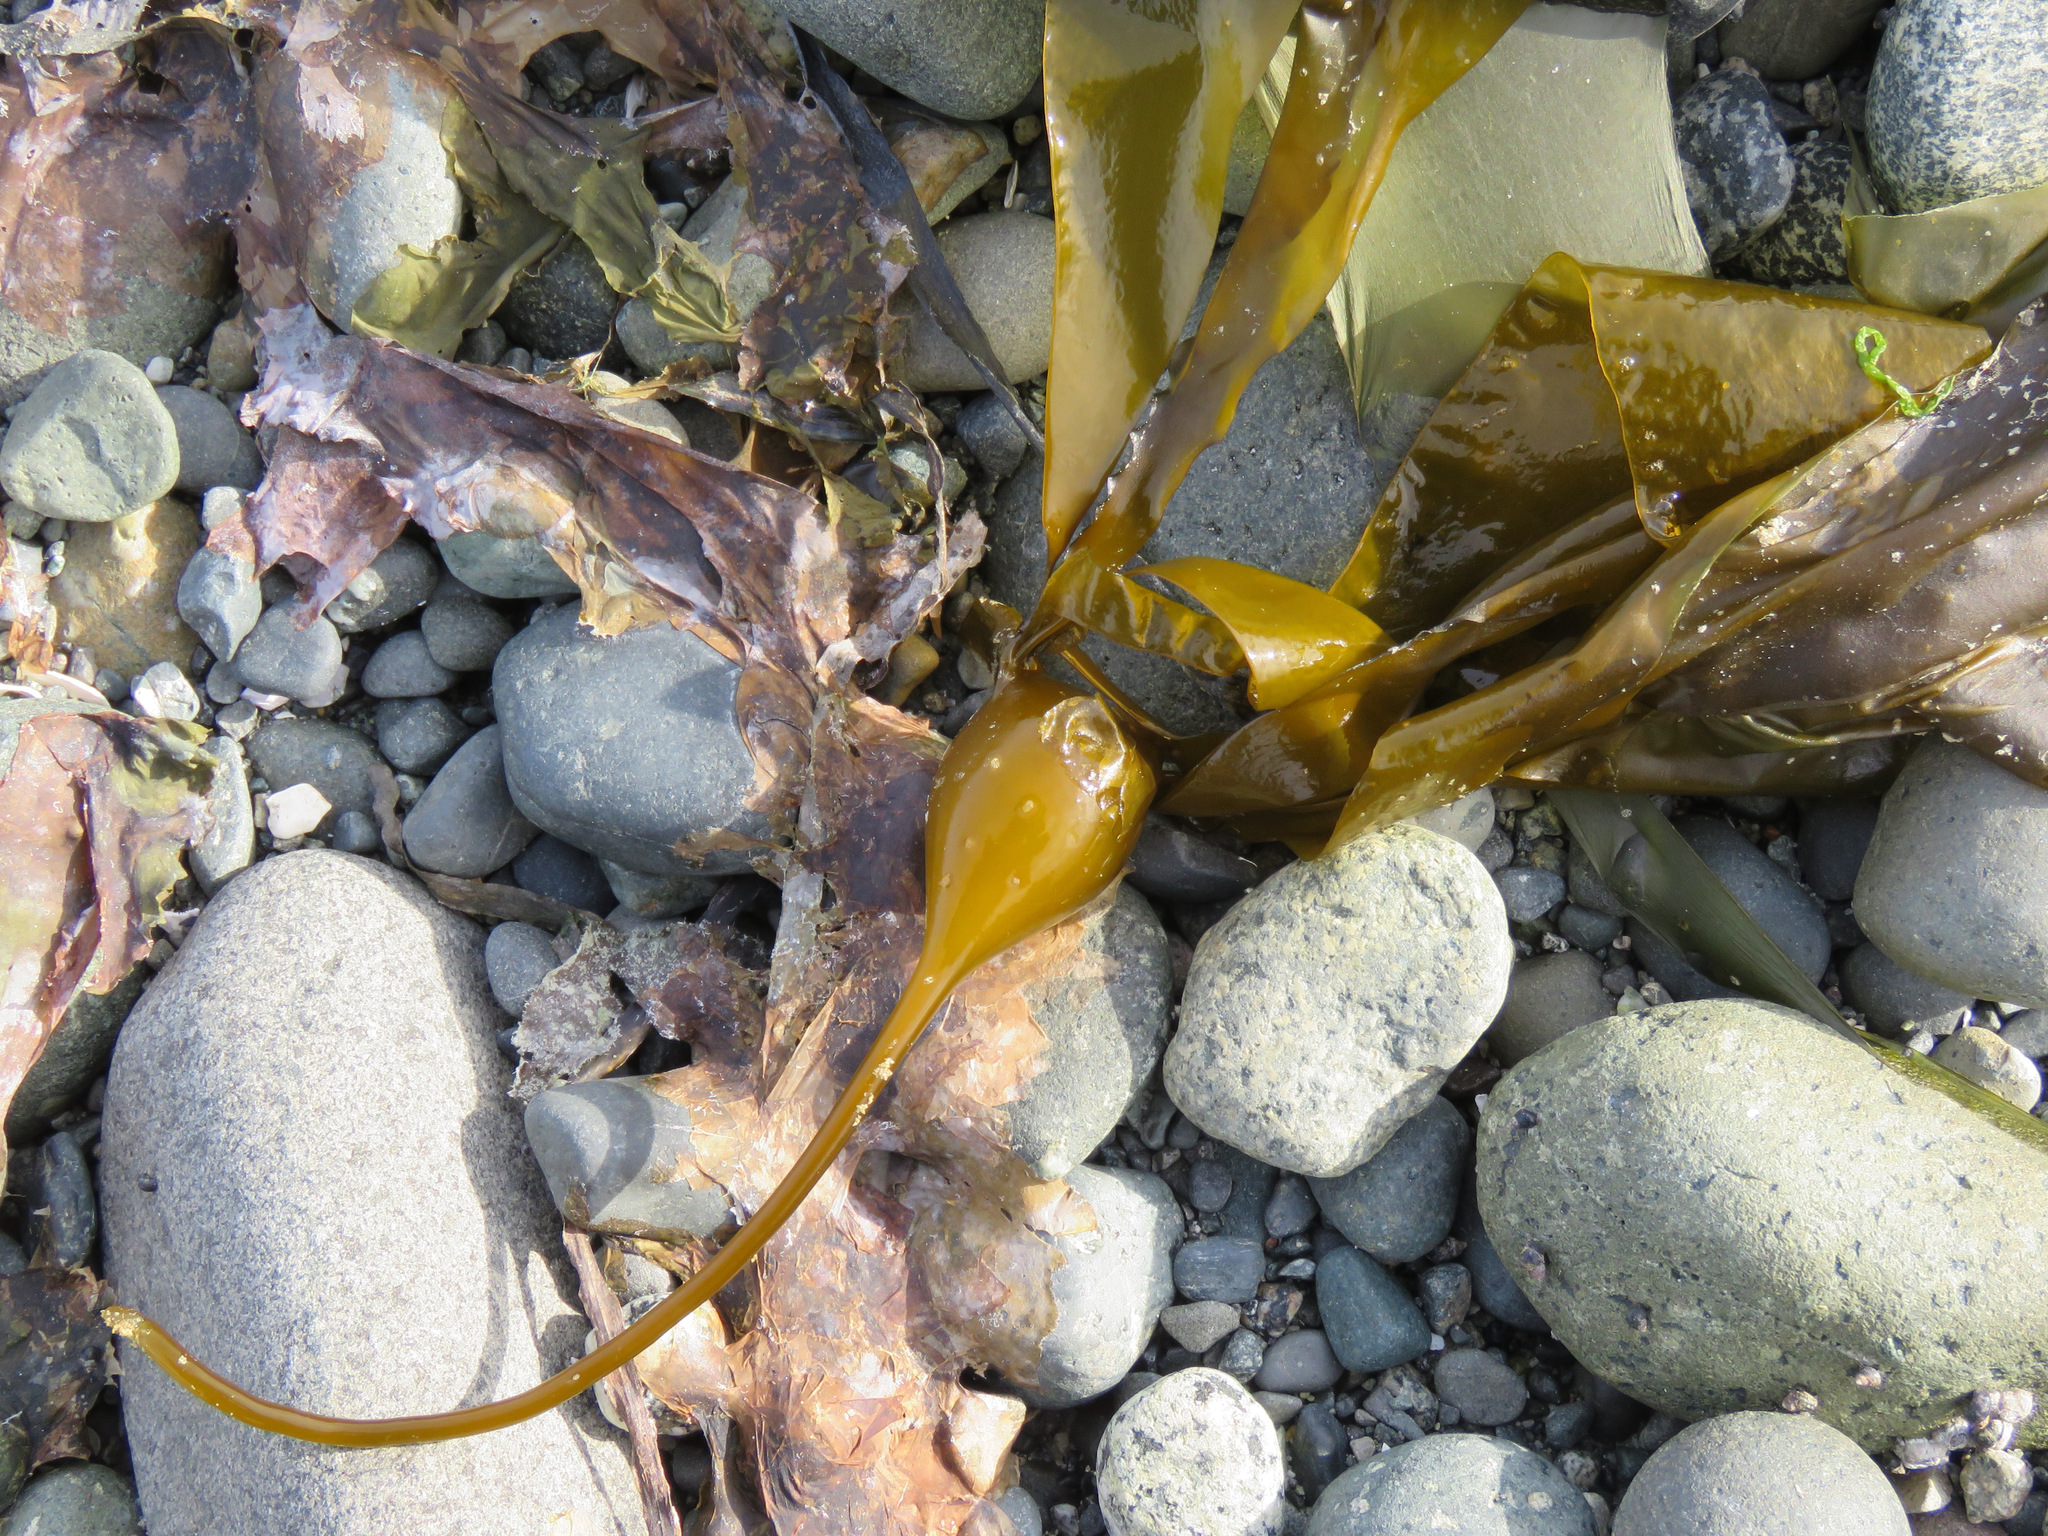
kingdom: Chromista
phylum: Ochrophyta
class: Phaeophyceae
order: Laminariales
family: Laminariaceae
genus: Nereocystis
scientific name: Nereocystis luetkeana
